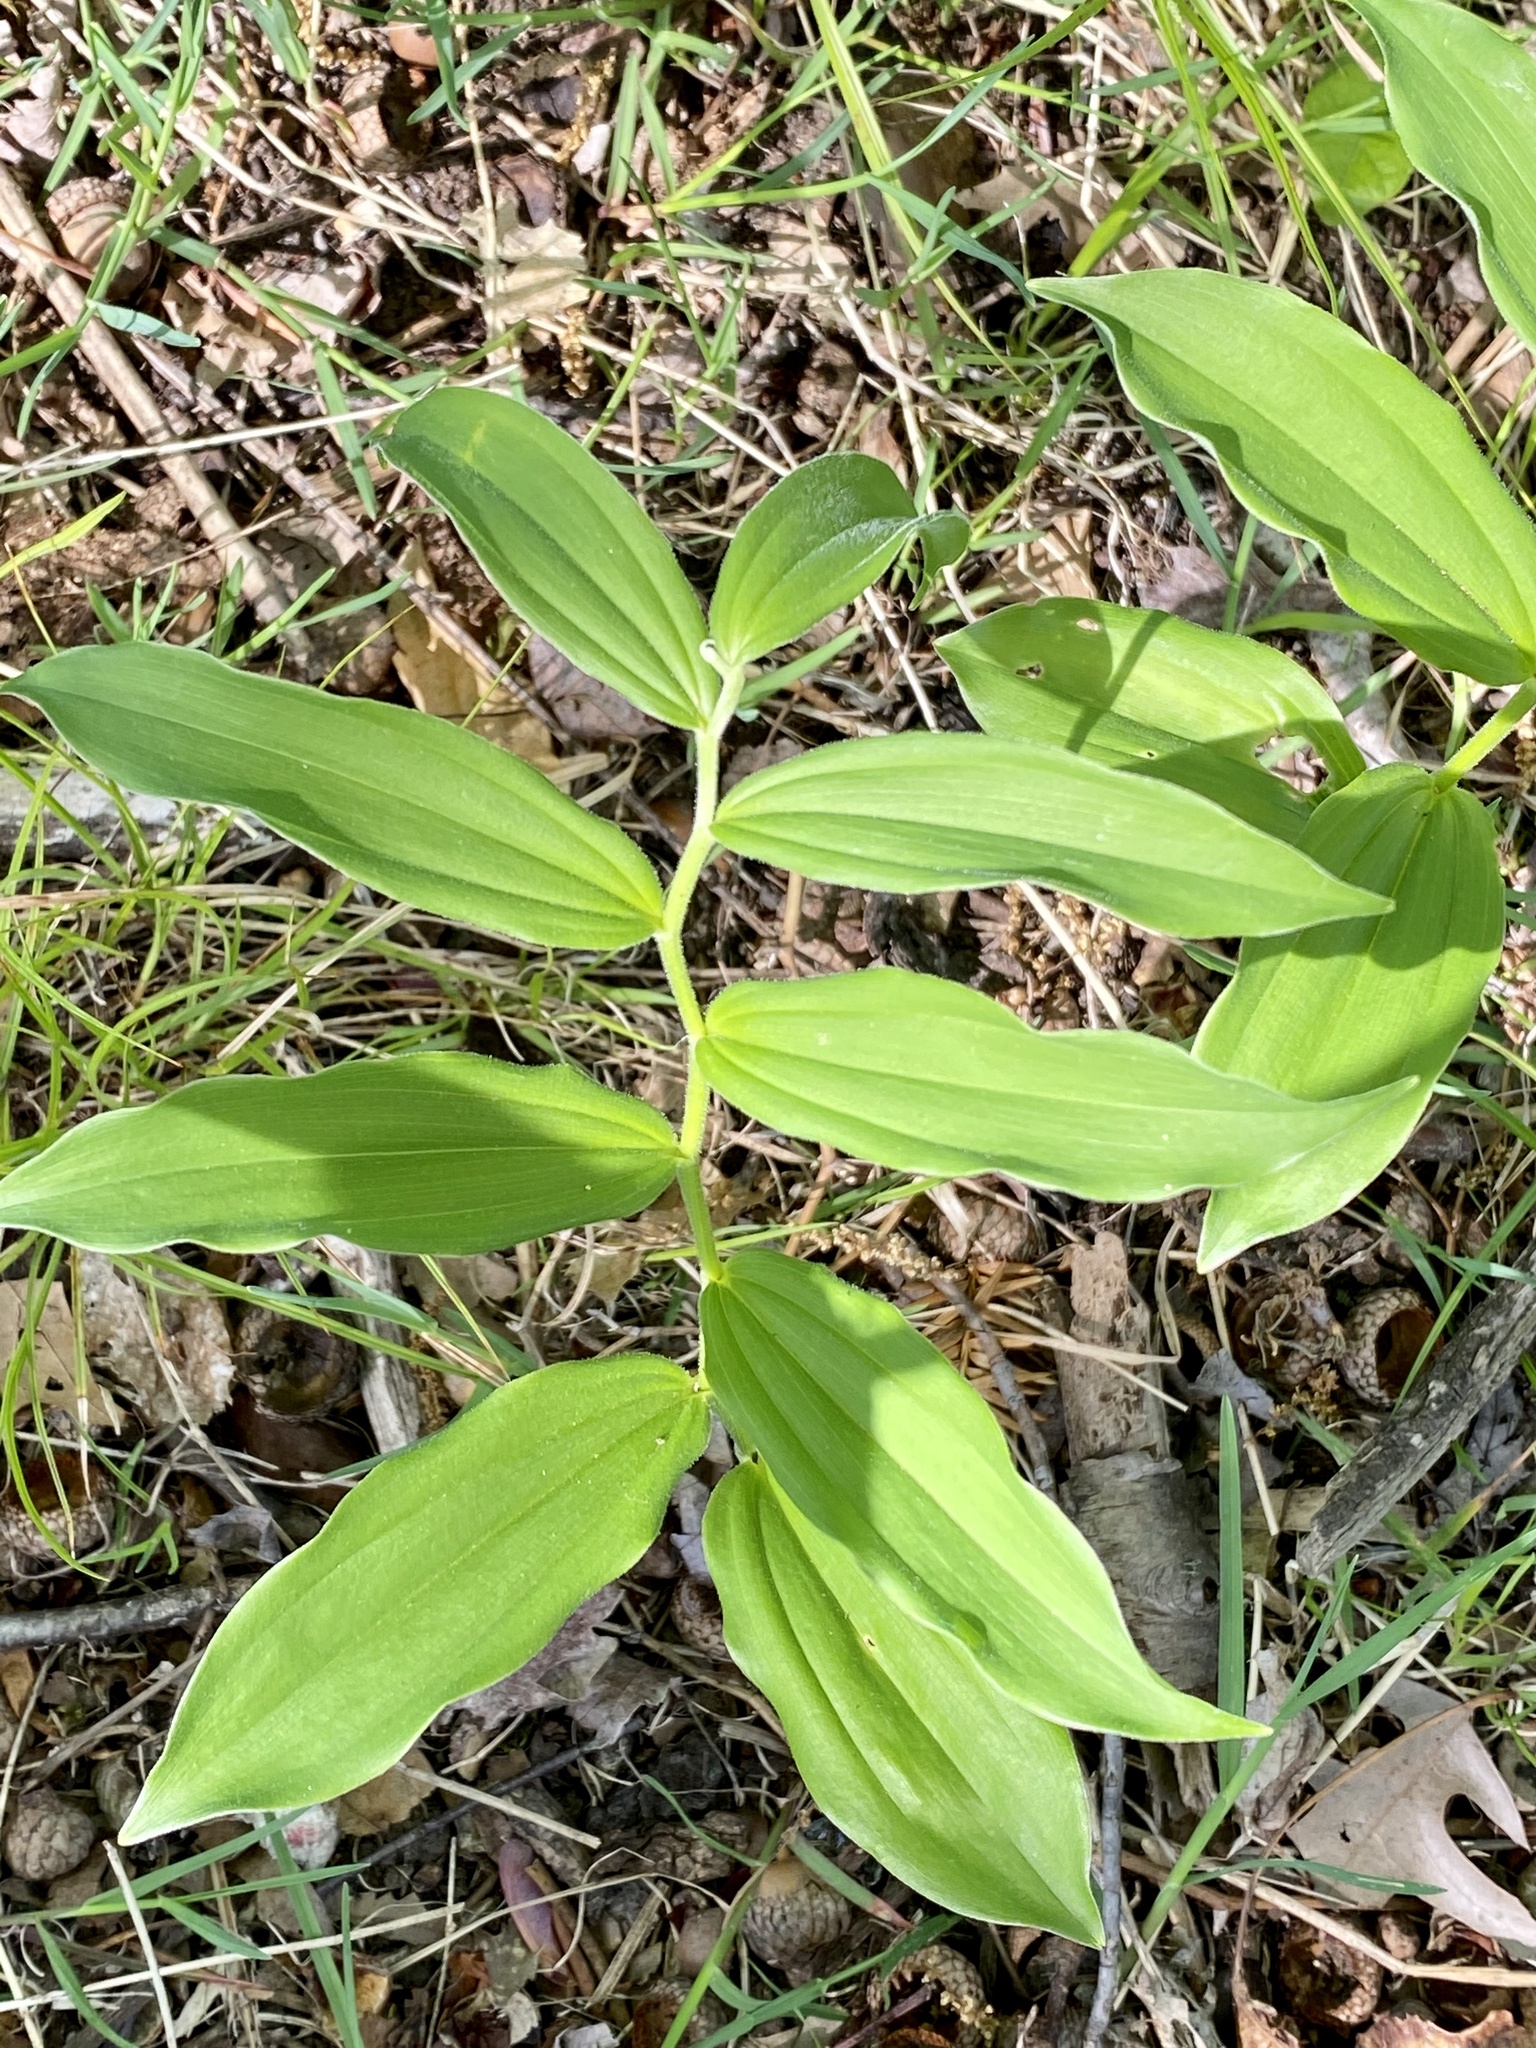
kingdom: Plantae
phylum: Tracheophyta
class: Liliopsida
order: Asparagales
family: Asparagaceae
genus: Maianthemum
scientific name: Maianthemum racemosum
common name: False spikenard
